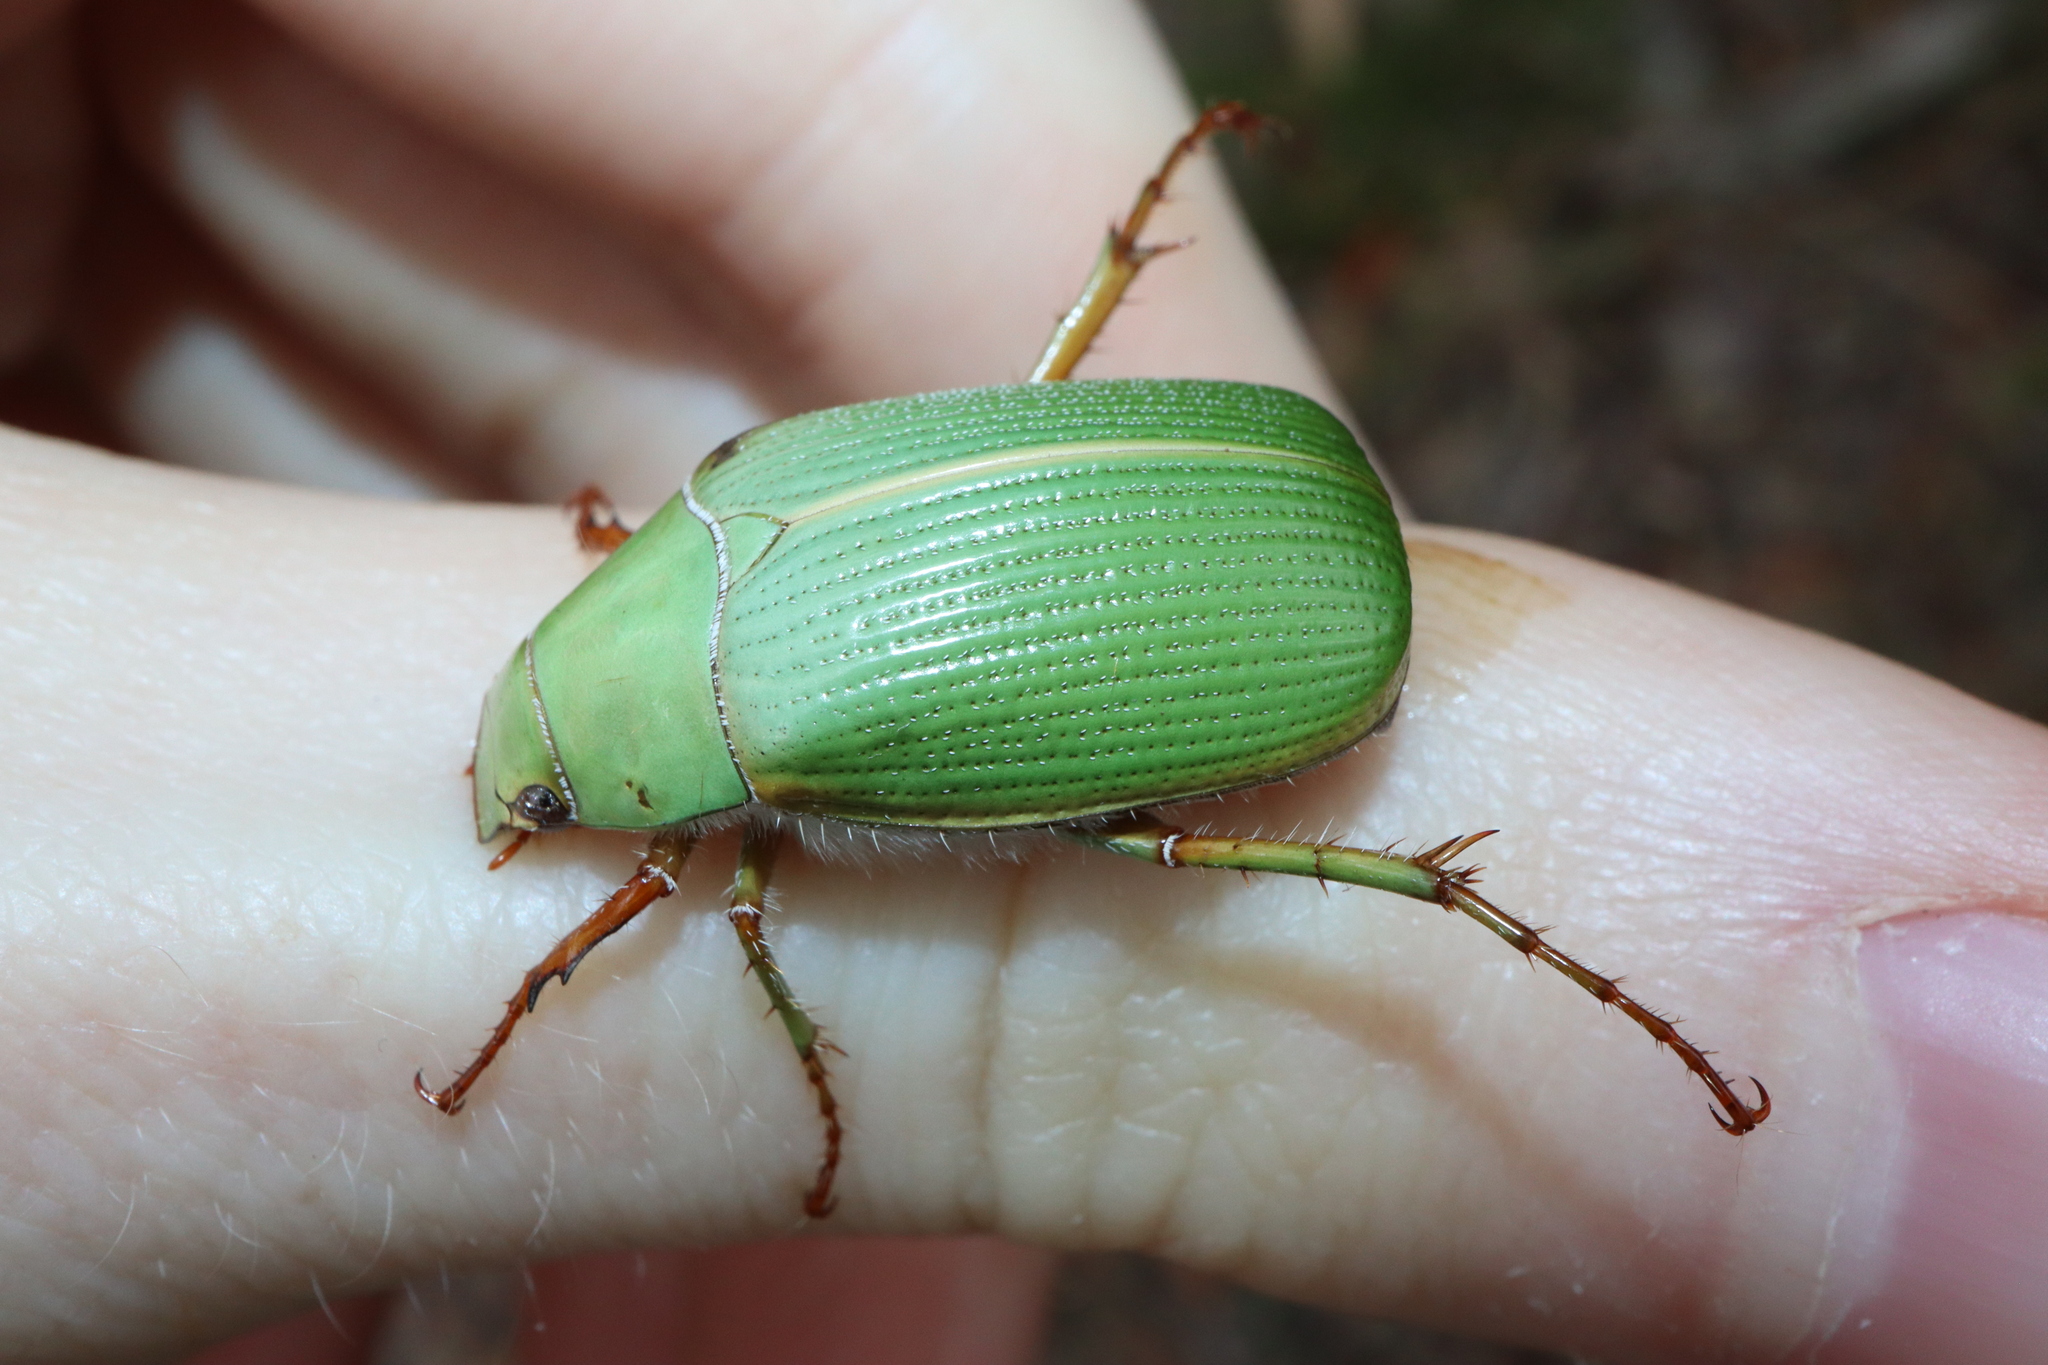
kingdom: Animalia
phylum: Arthropoda
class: Insecta
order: Coleoptera
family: Scarabaeidae
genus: Xylonichus
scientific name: Xylonichus eucalypti
